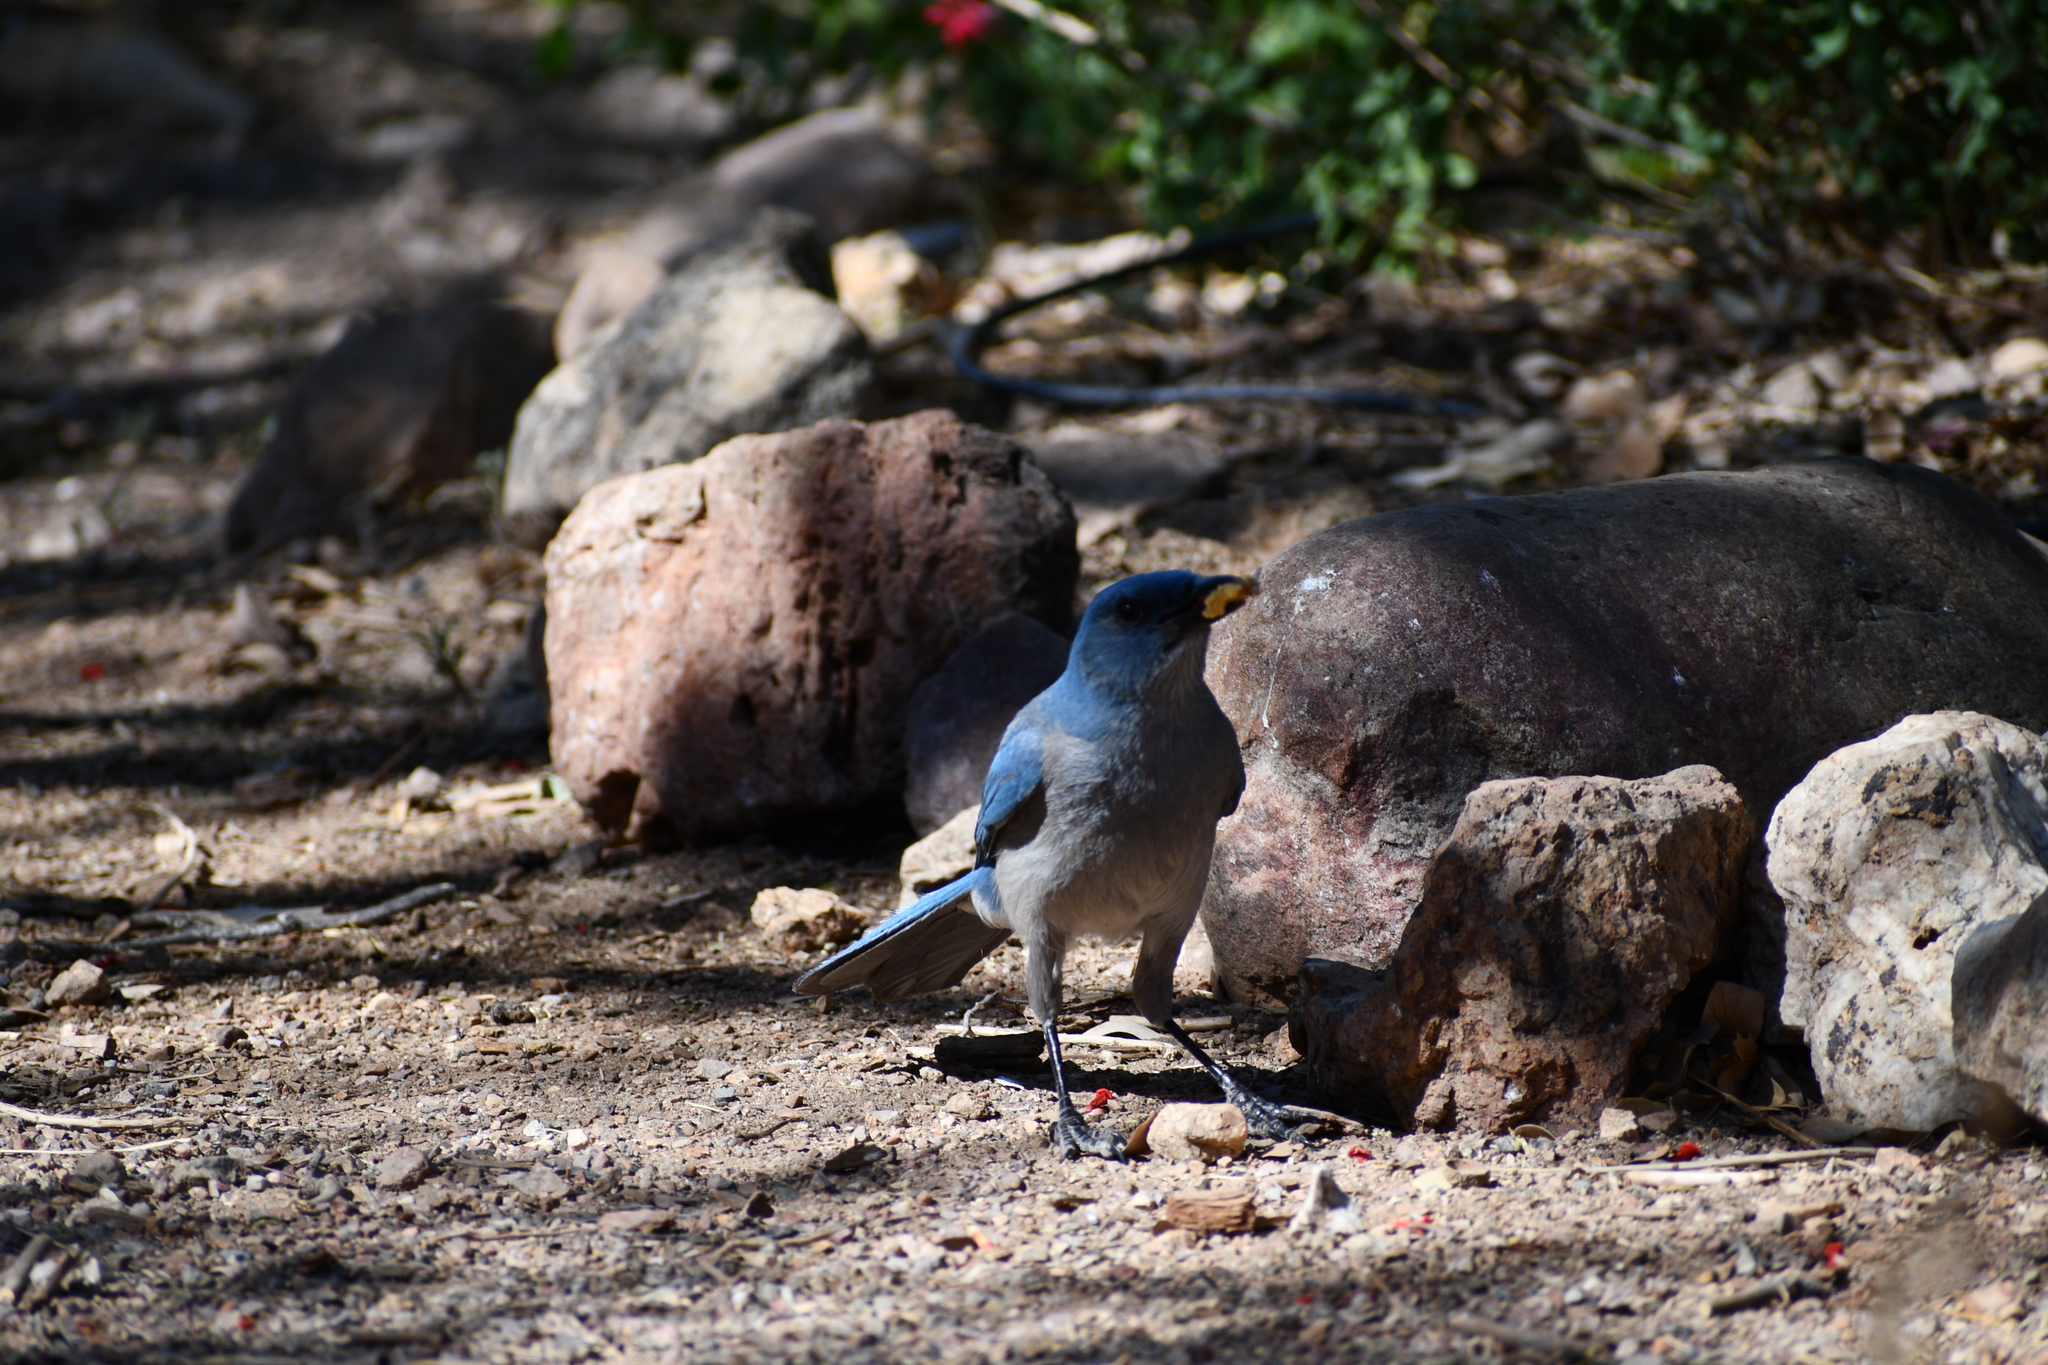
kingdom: Animalia
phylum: Chordata
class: Aves
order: Passeriformes
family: Corvidae
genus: Aphelocoma
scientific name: Aphelocoma wollweberi
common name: Mexican jay
